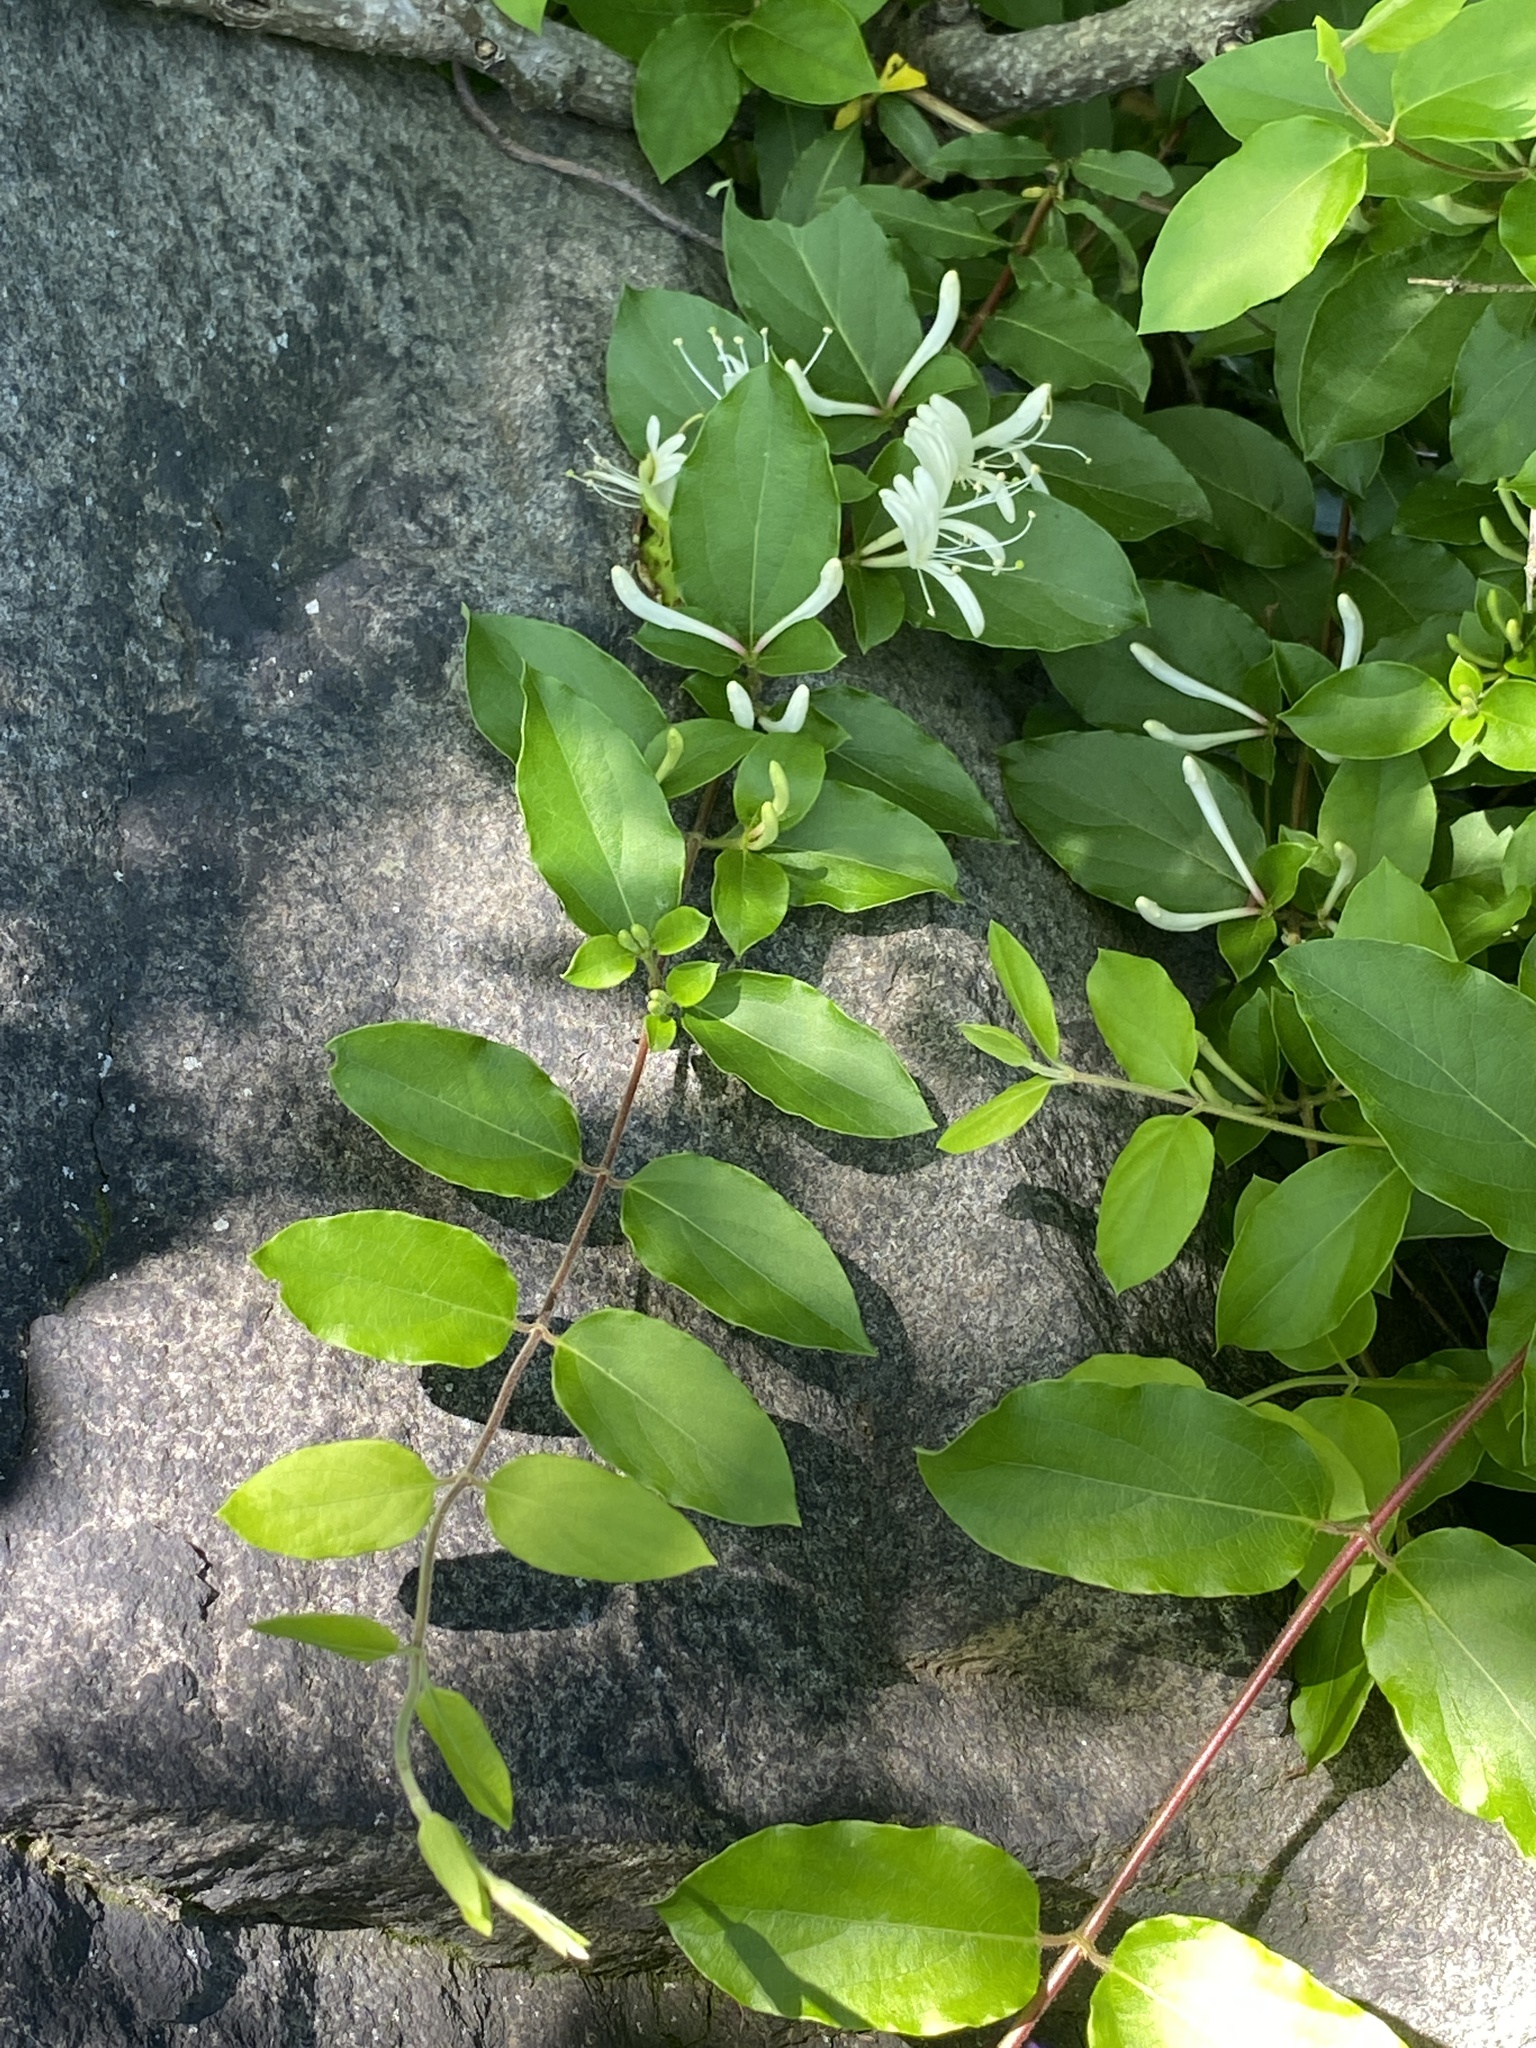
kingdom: Plantae
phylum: Tracheophyta
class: Magnoliopsida
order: Dipsacales
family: Caprifoliaceae
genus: Lonicera
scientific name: Lonicera japonica
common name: Japanese honeysuckle
